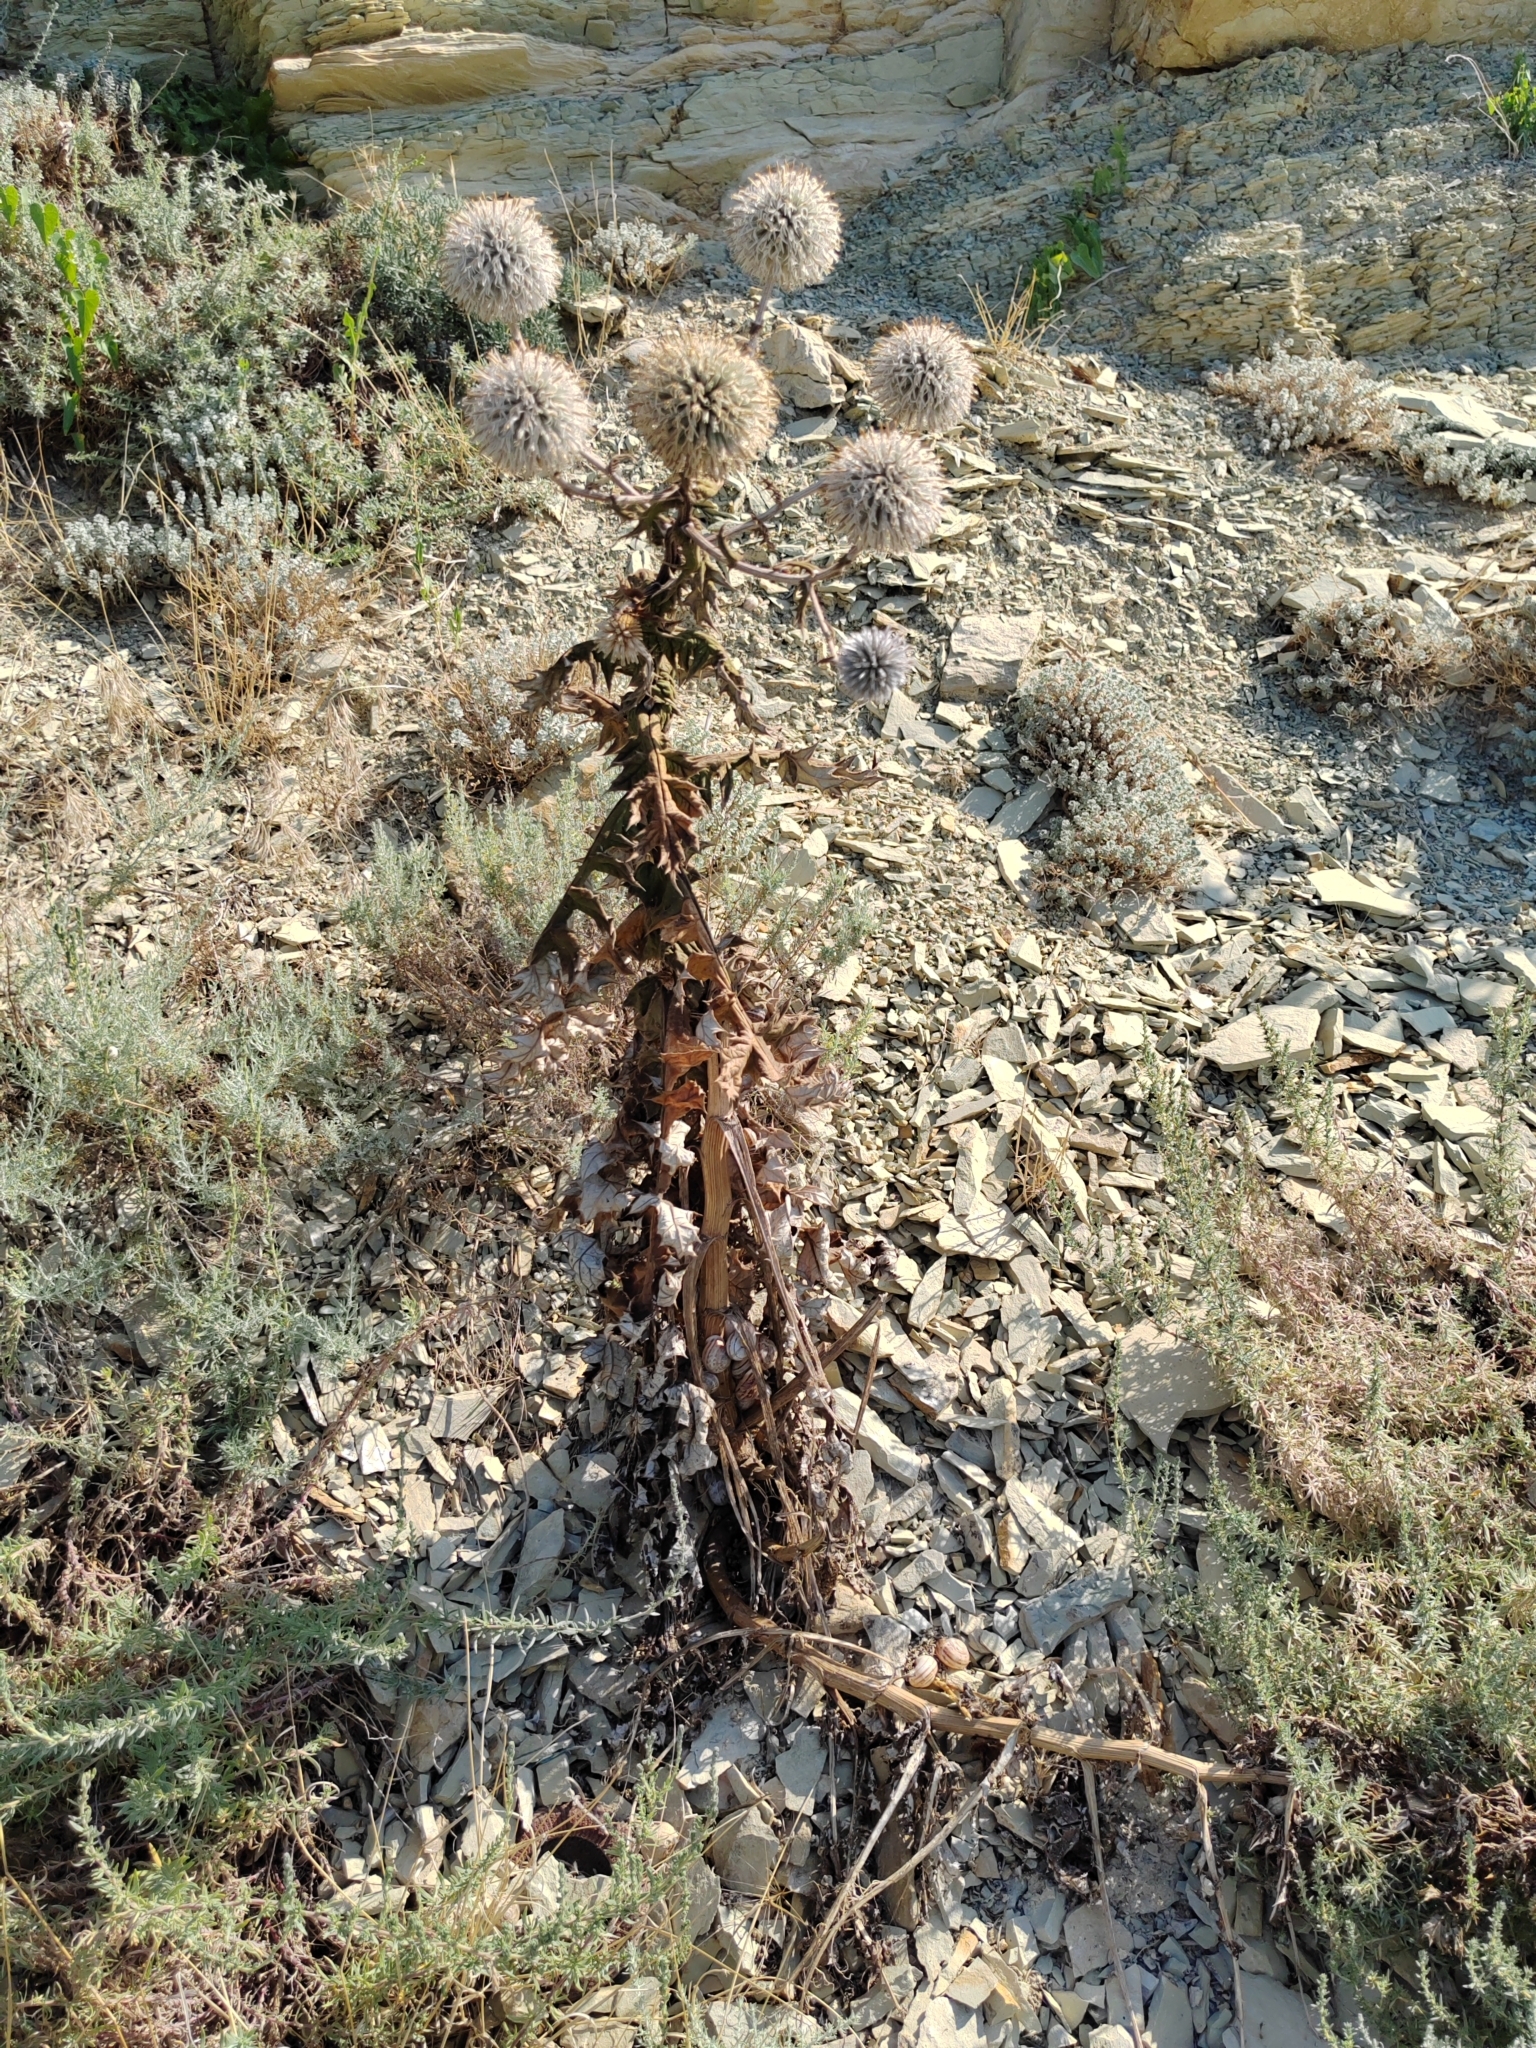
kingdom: Plantae
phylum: Tracheophyta
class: Magnoliopsida
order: Asterales
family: Asteraceae
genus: Echinops
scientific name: Echinops sphaerocephalus
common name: Glandular globe-thistle
